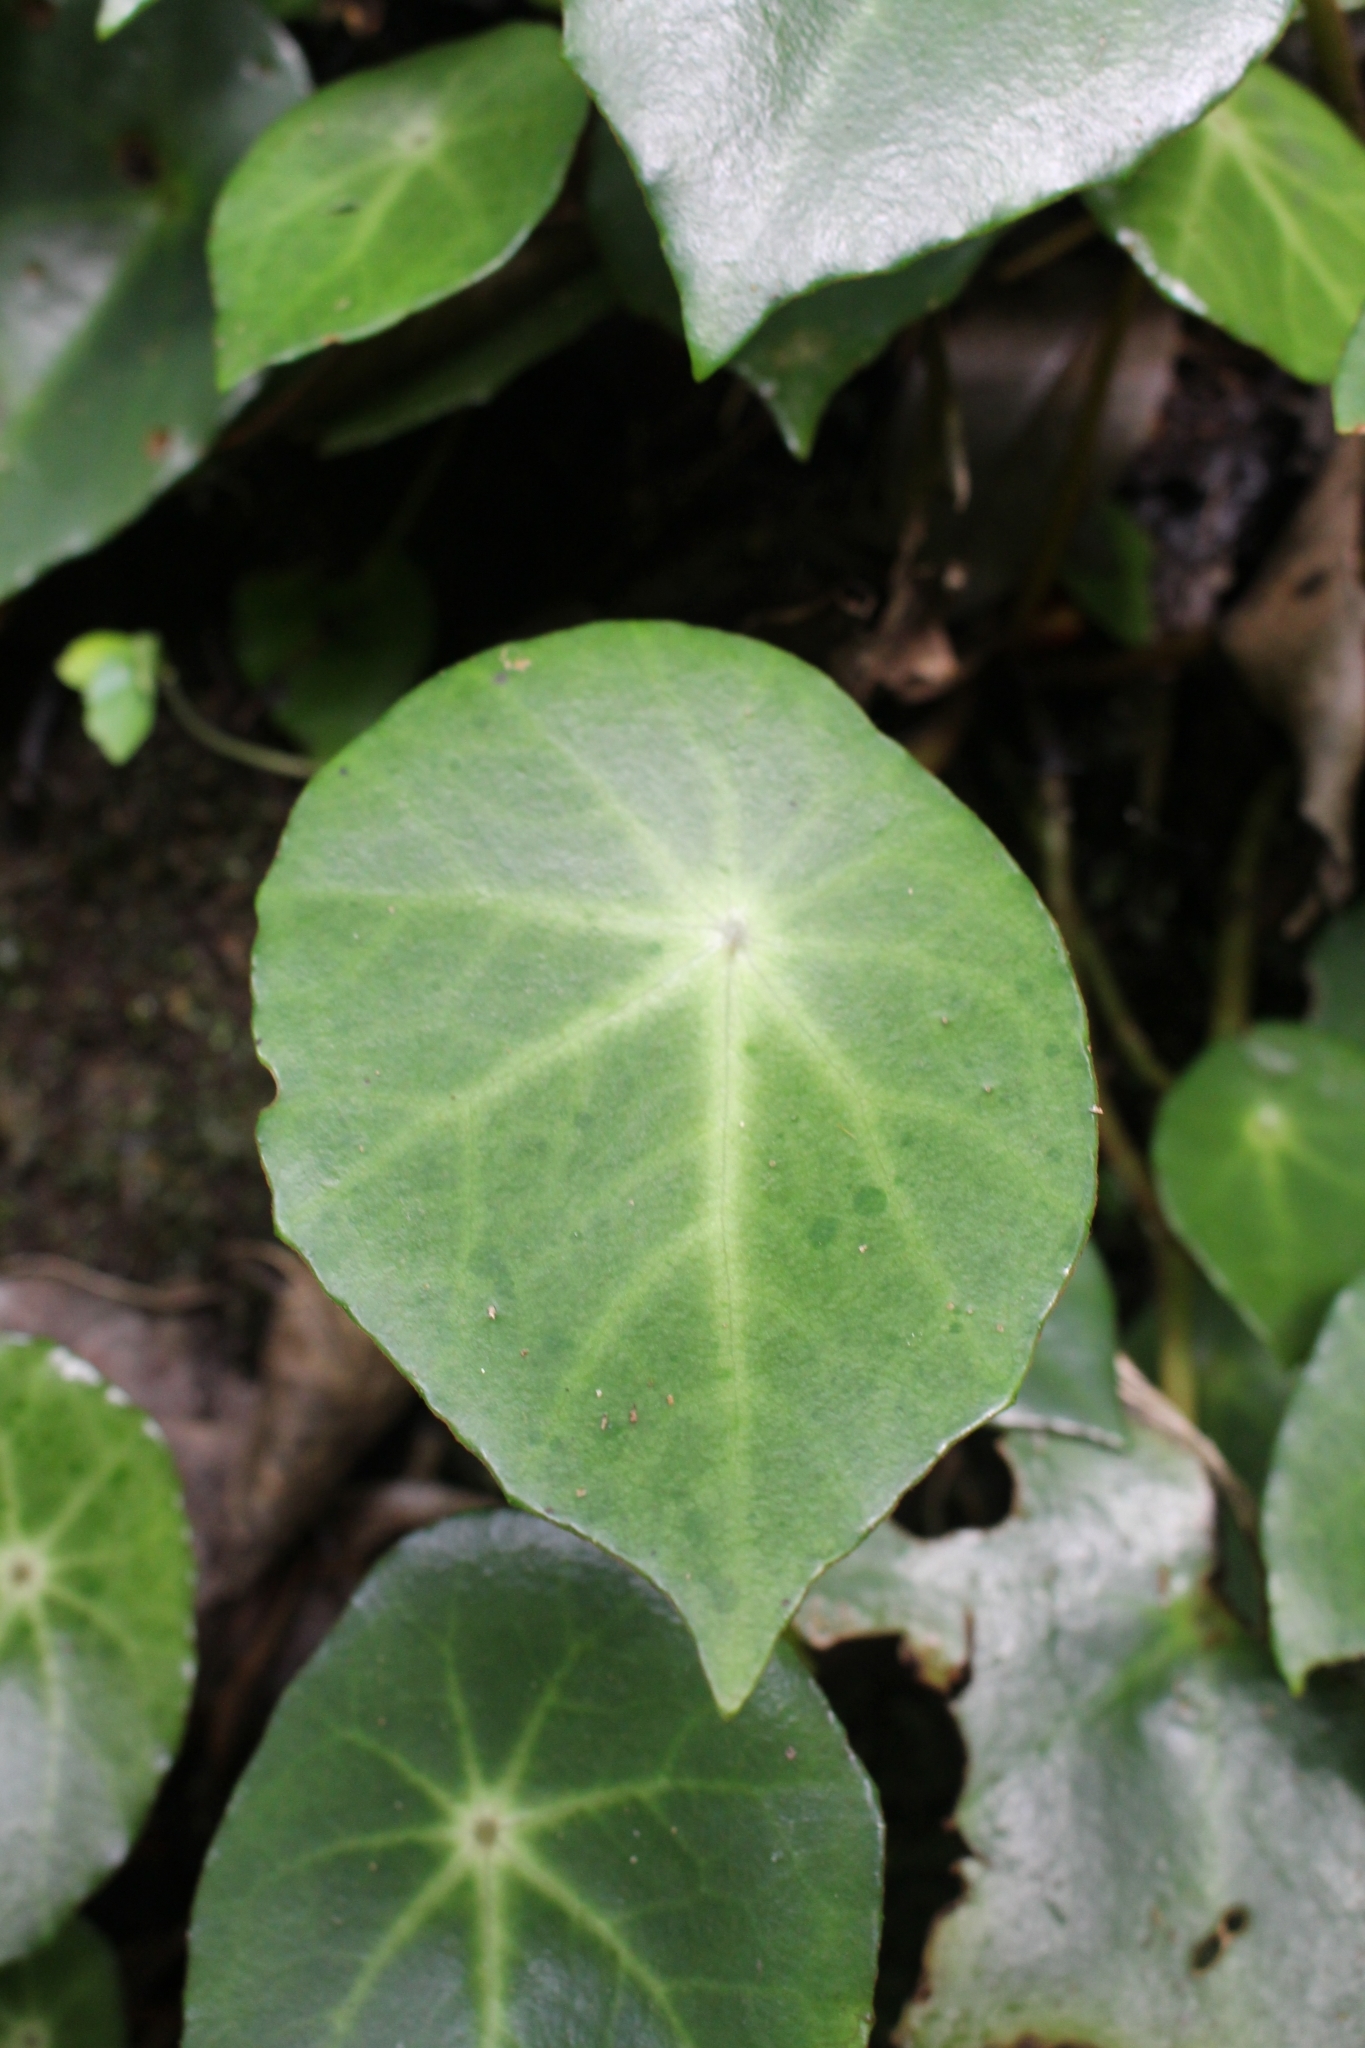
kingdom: Plantae
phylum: Tracheophyta
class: Magnoliopsida
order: Cucurbitales
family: Begoniaceae
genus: Begonia
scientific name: Begonia conchifolia
